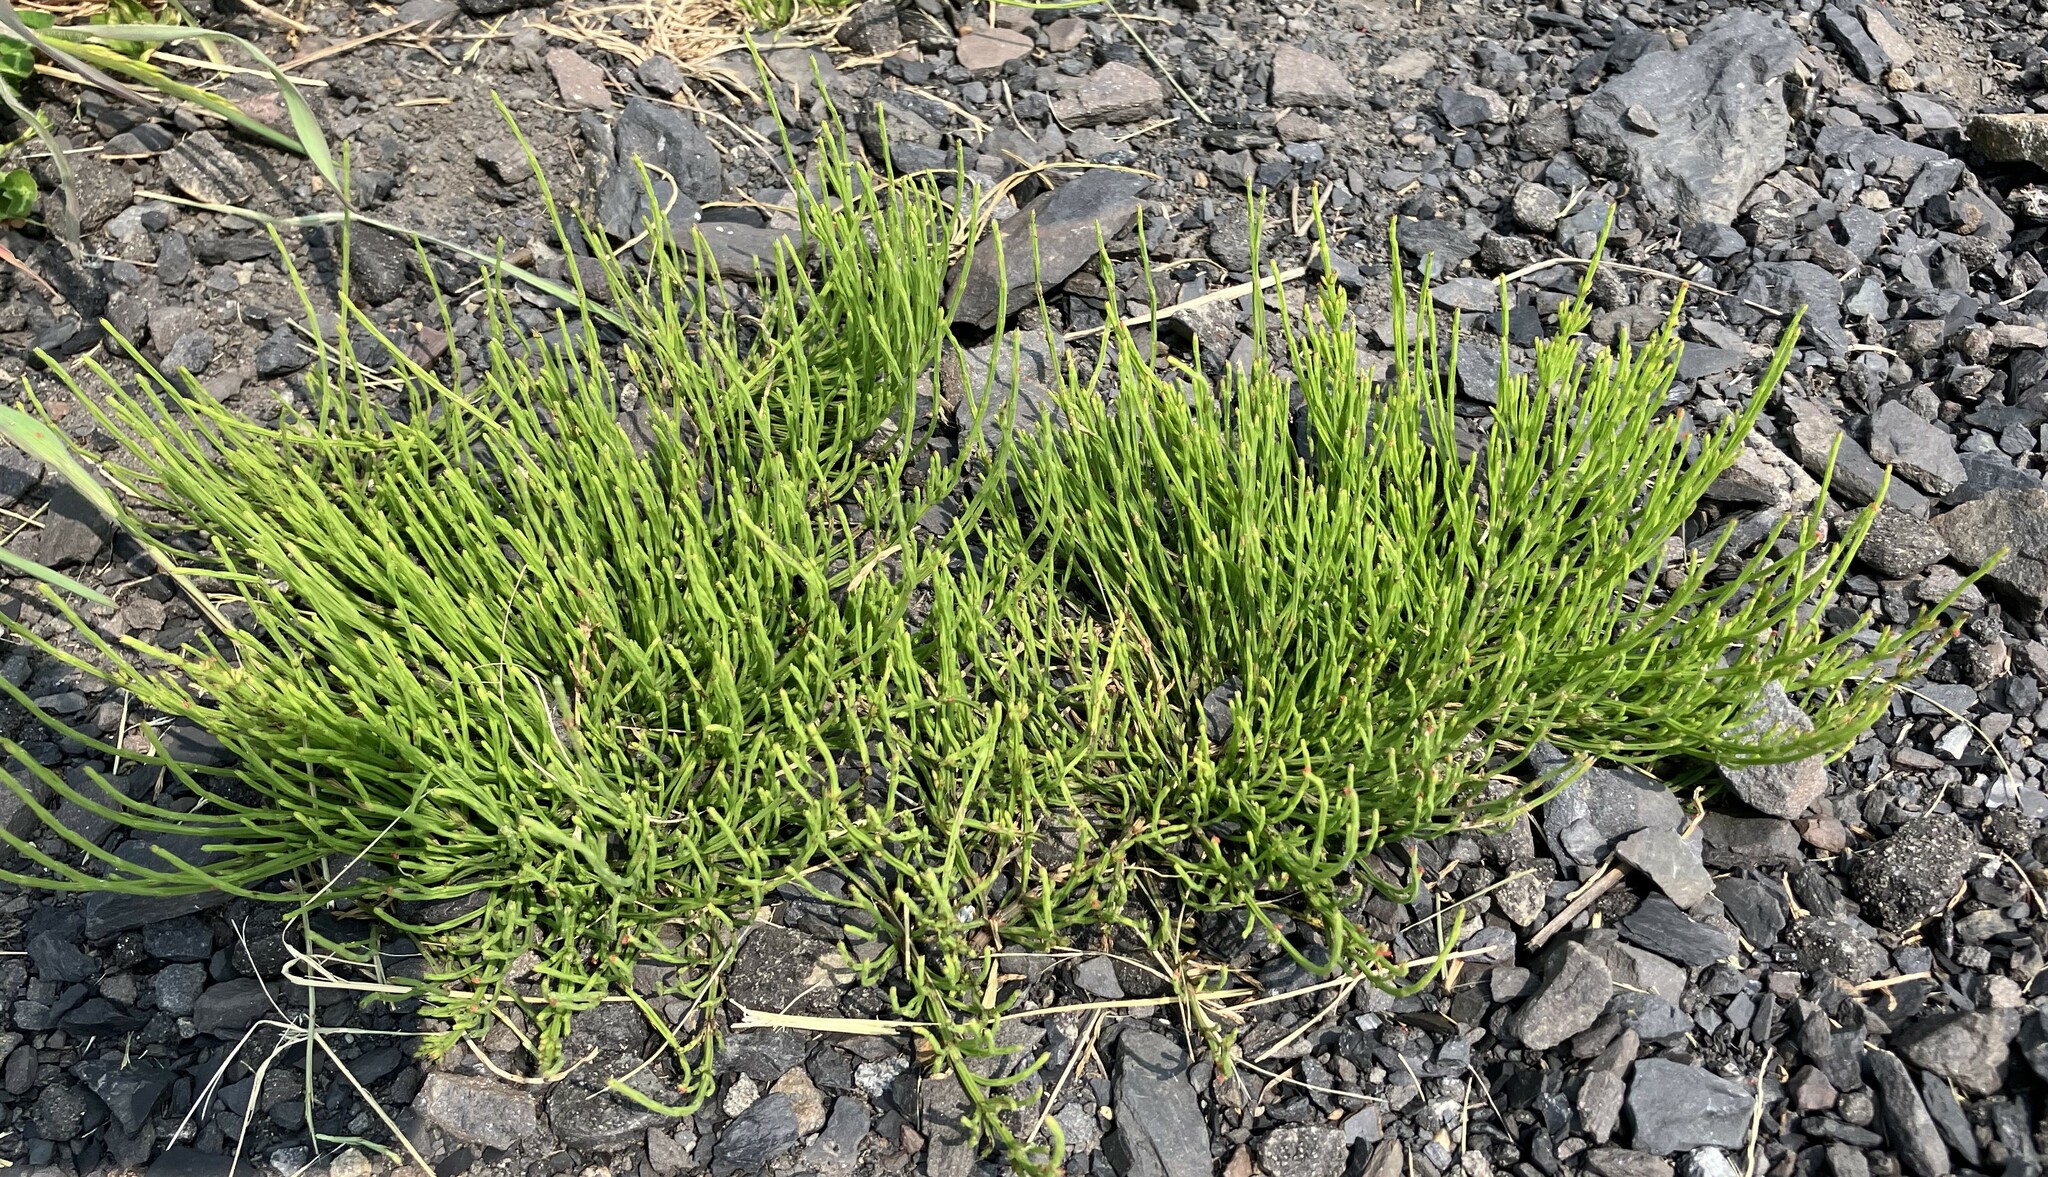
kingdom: Plantae
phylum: Tracheophyta
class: Polypodiopsida
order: Equisetales
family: Equisetaceae
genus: Equisetum
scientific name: Equisetum arvense
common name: Field horsetail
